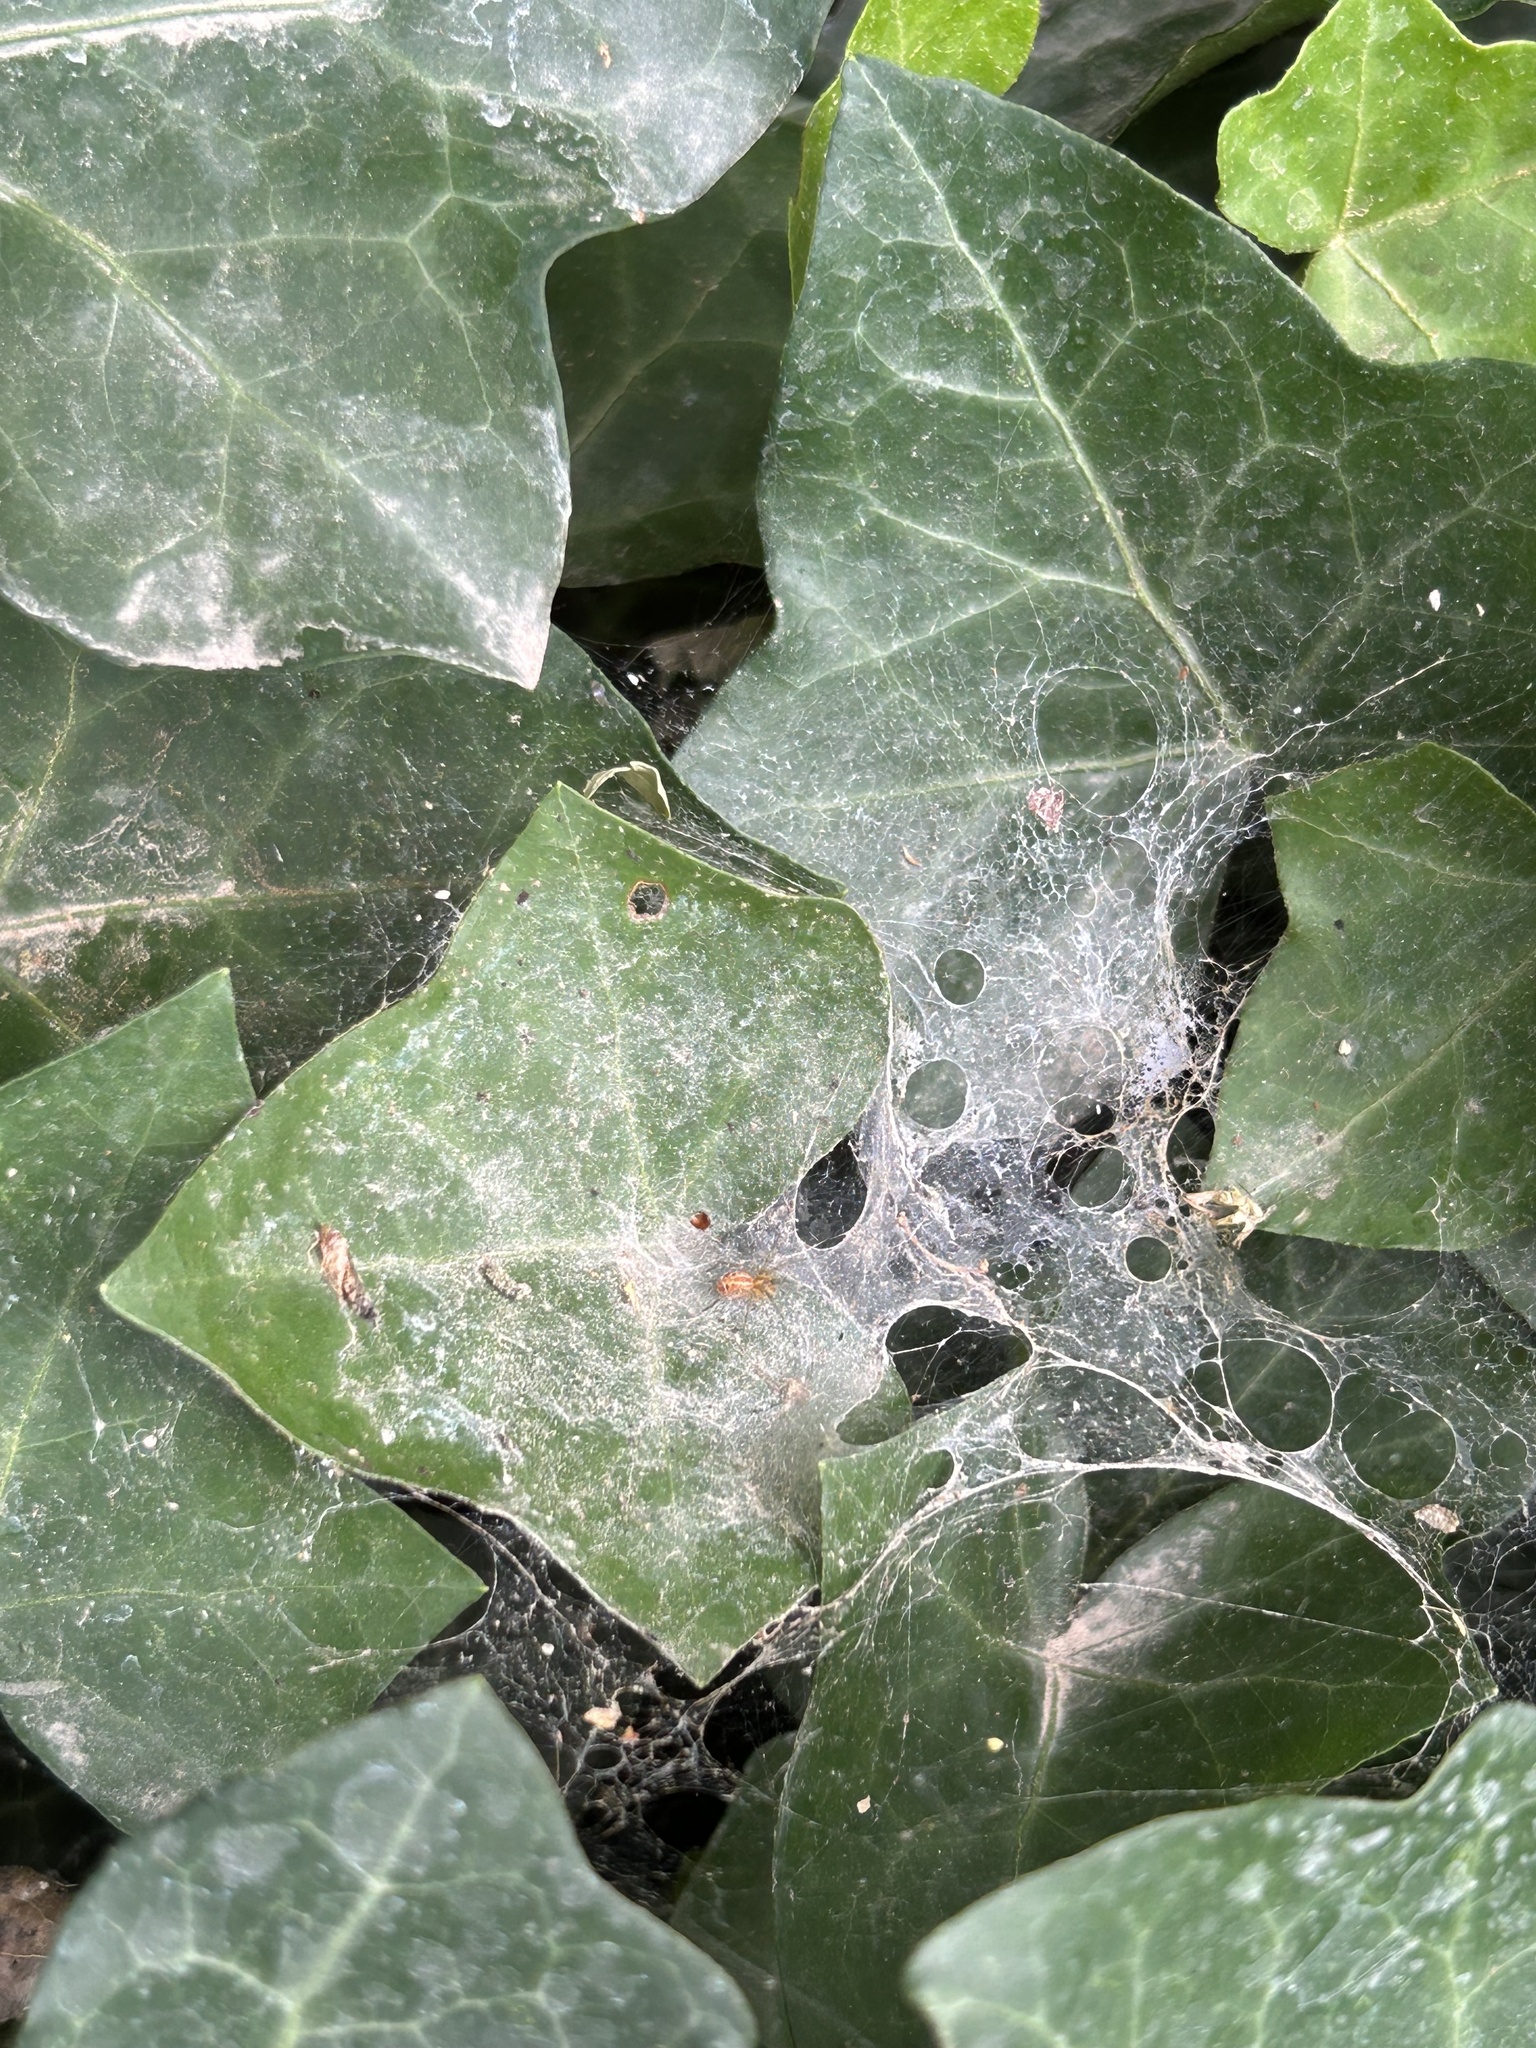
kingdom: Animalia
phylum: Arthropoda
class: Arachnida
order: Araneae
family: Agelenidae
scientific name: Agelenidae
